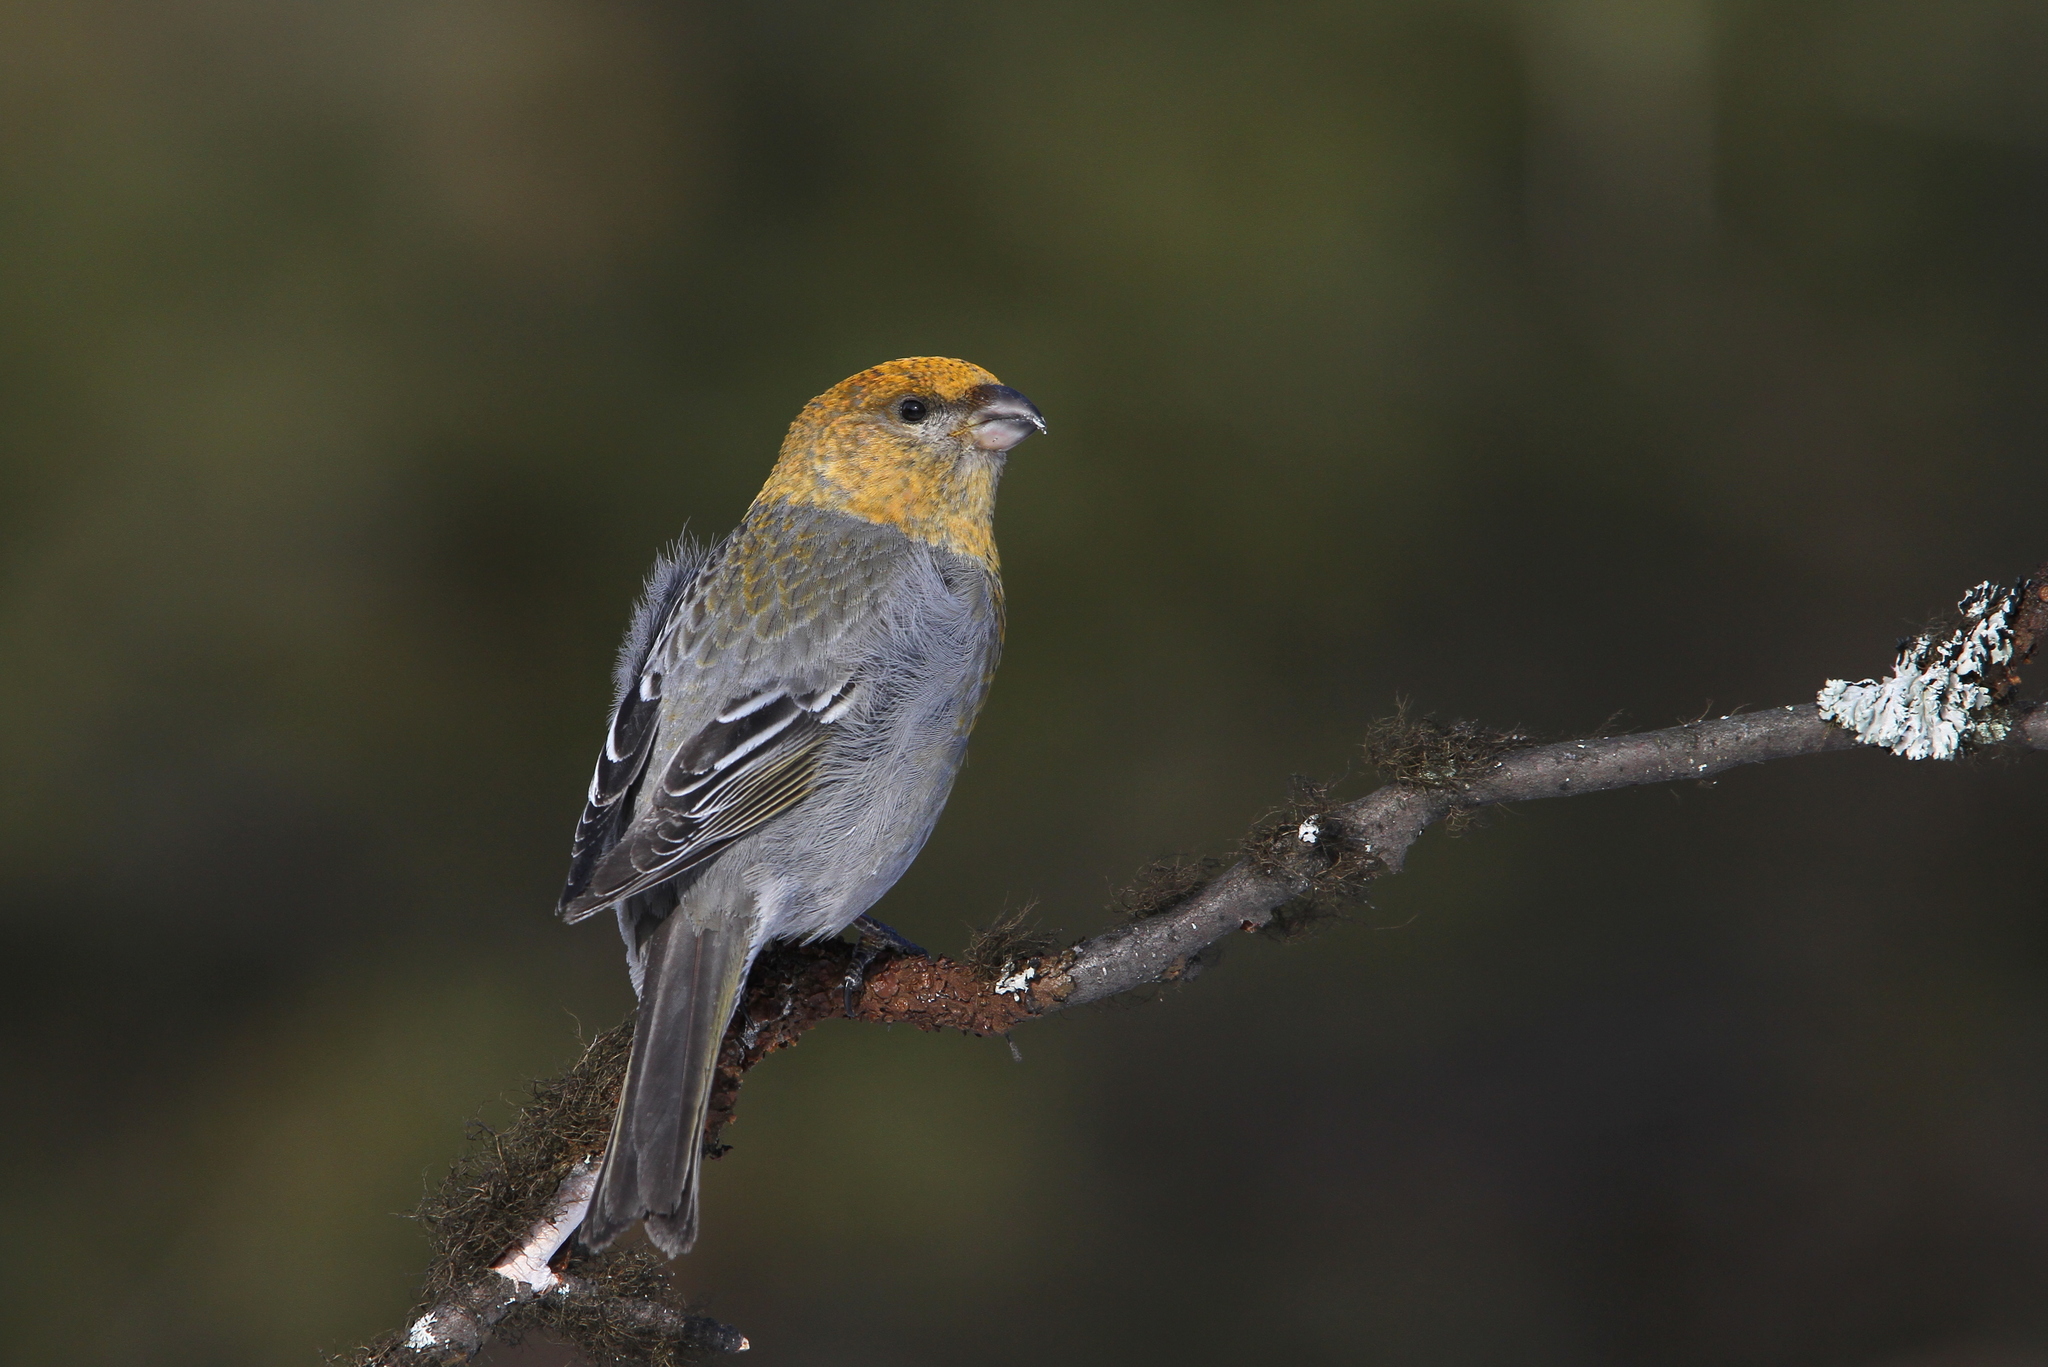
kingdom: Animalia
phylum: Chordata
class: Aves
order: Passeriformes
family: Fringillidae
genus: Pinicola
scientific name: Pinicola enucleator
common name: Pine grosbeak
